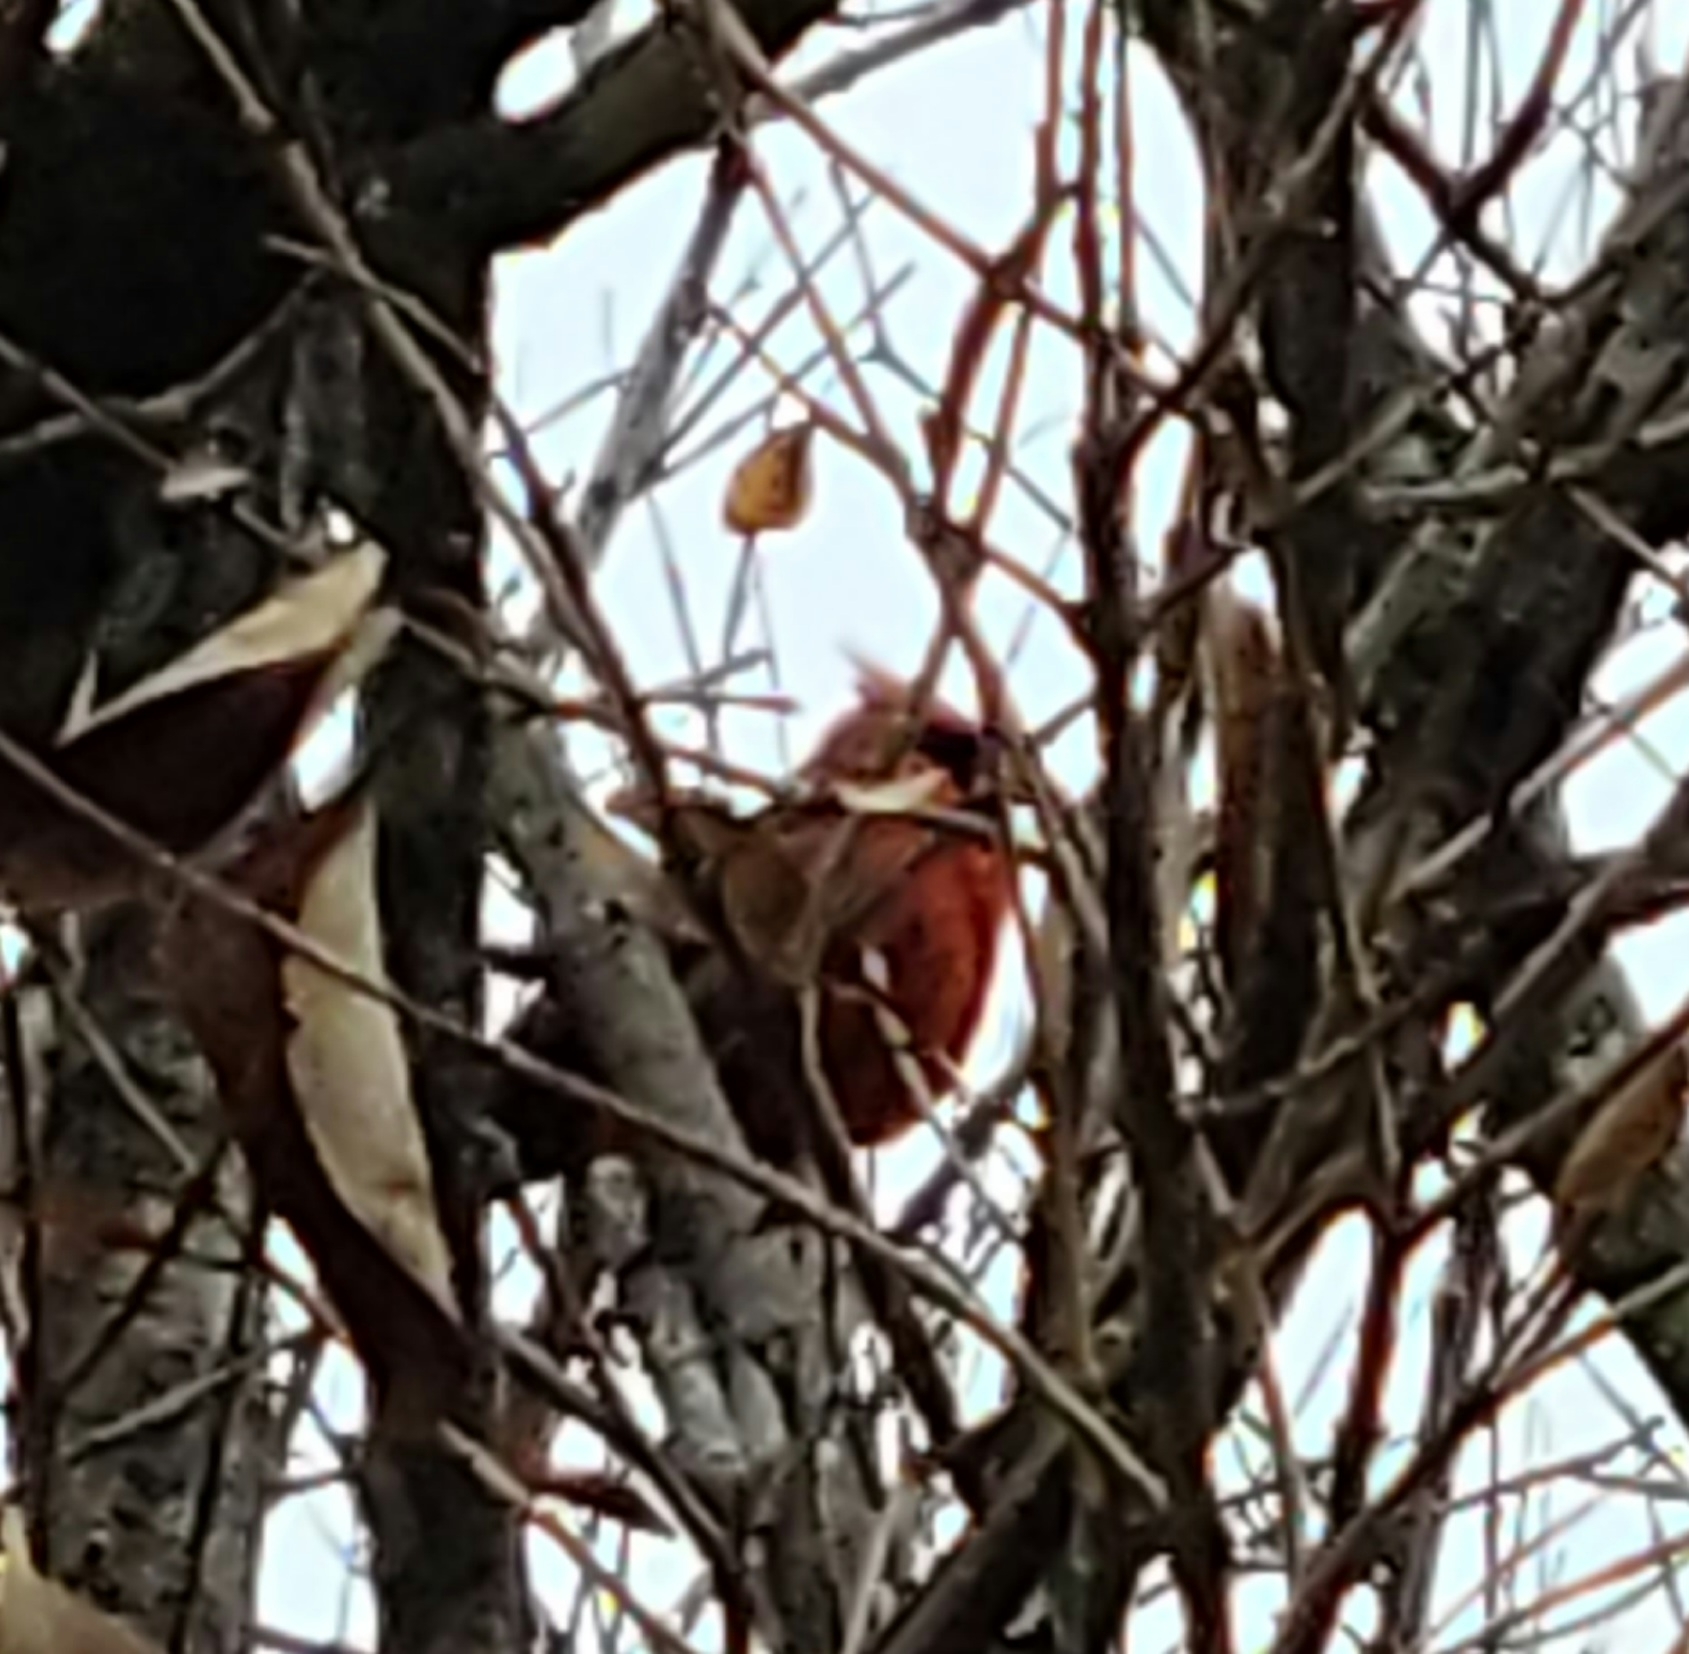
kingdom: Animalia
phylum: Chordata
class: Aves
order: Passeriformes
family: Cardinalidae
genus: Cardinalis
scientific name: Cardinalis cardinalis
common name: Northern cardinal
